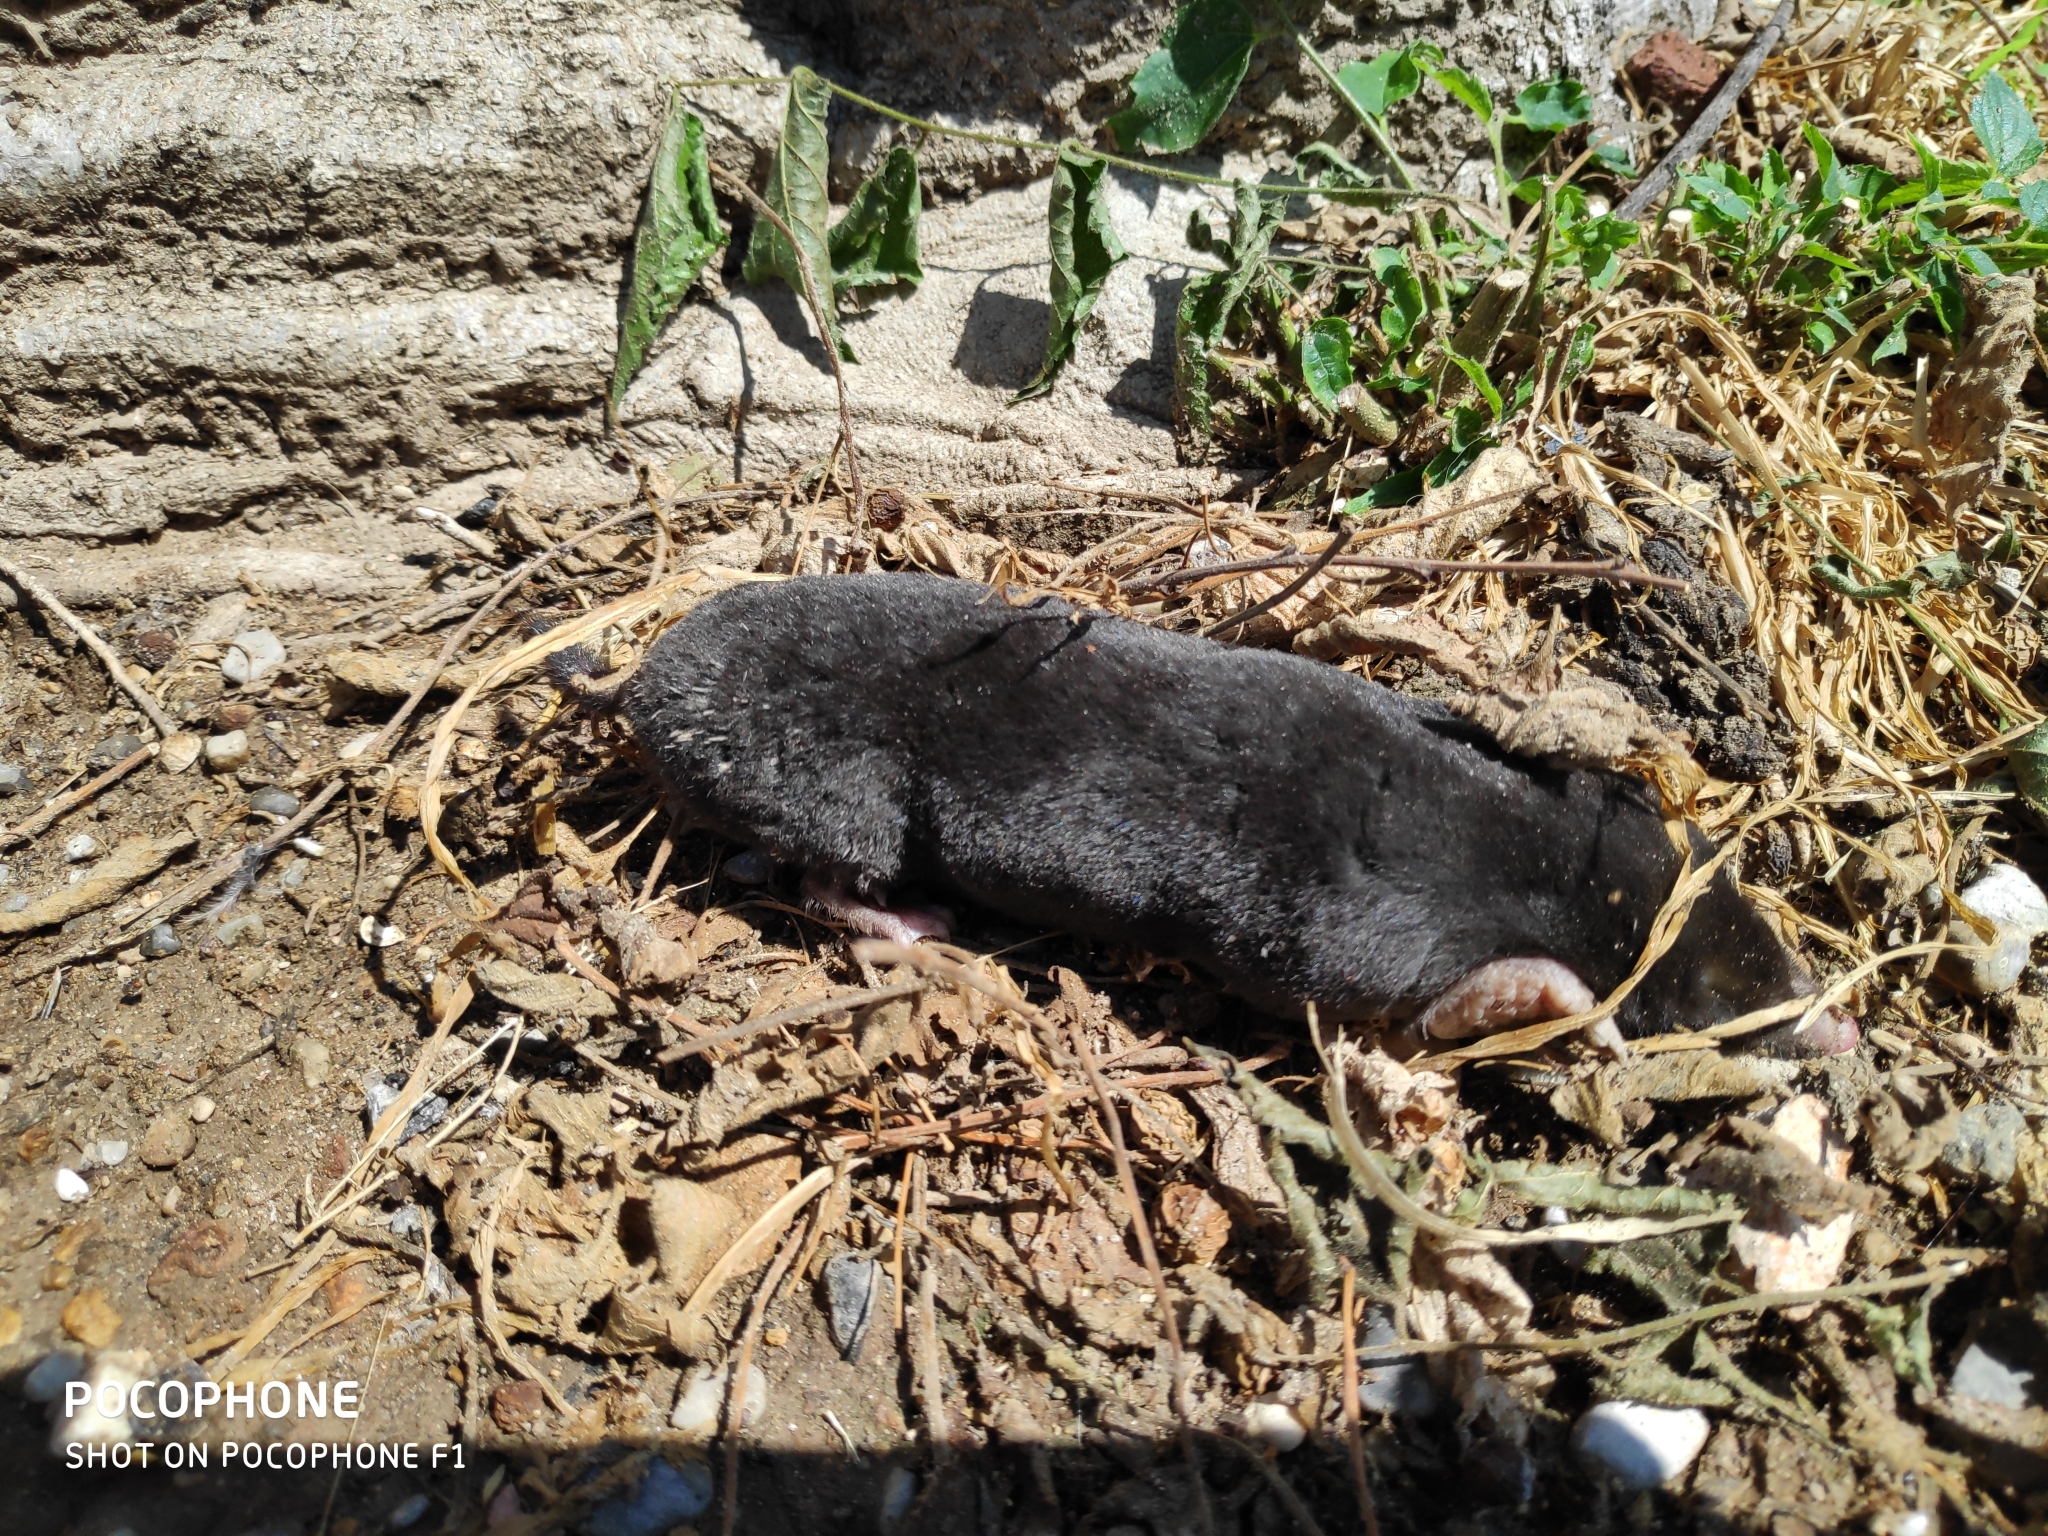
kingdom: Animalia
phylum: Chordata
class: Mammalia
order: Soricomorpha
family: Talpidae
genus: Talpa
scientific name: Talpa
